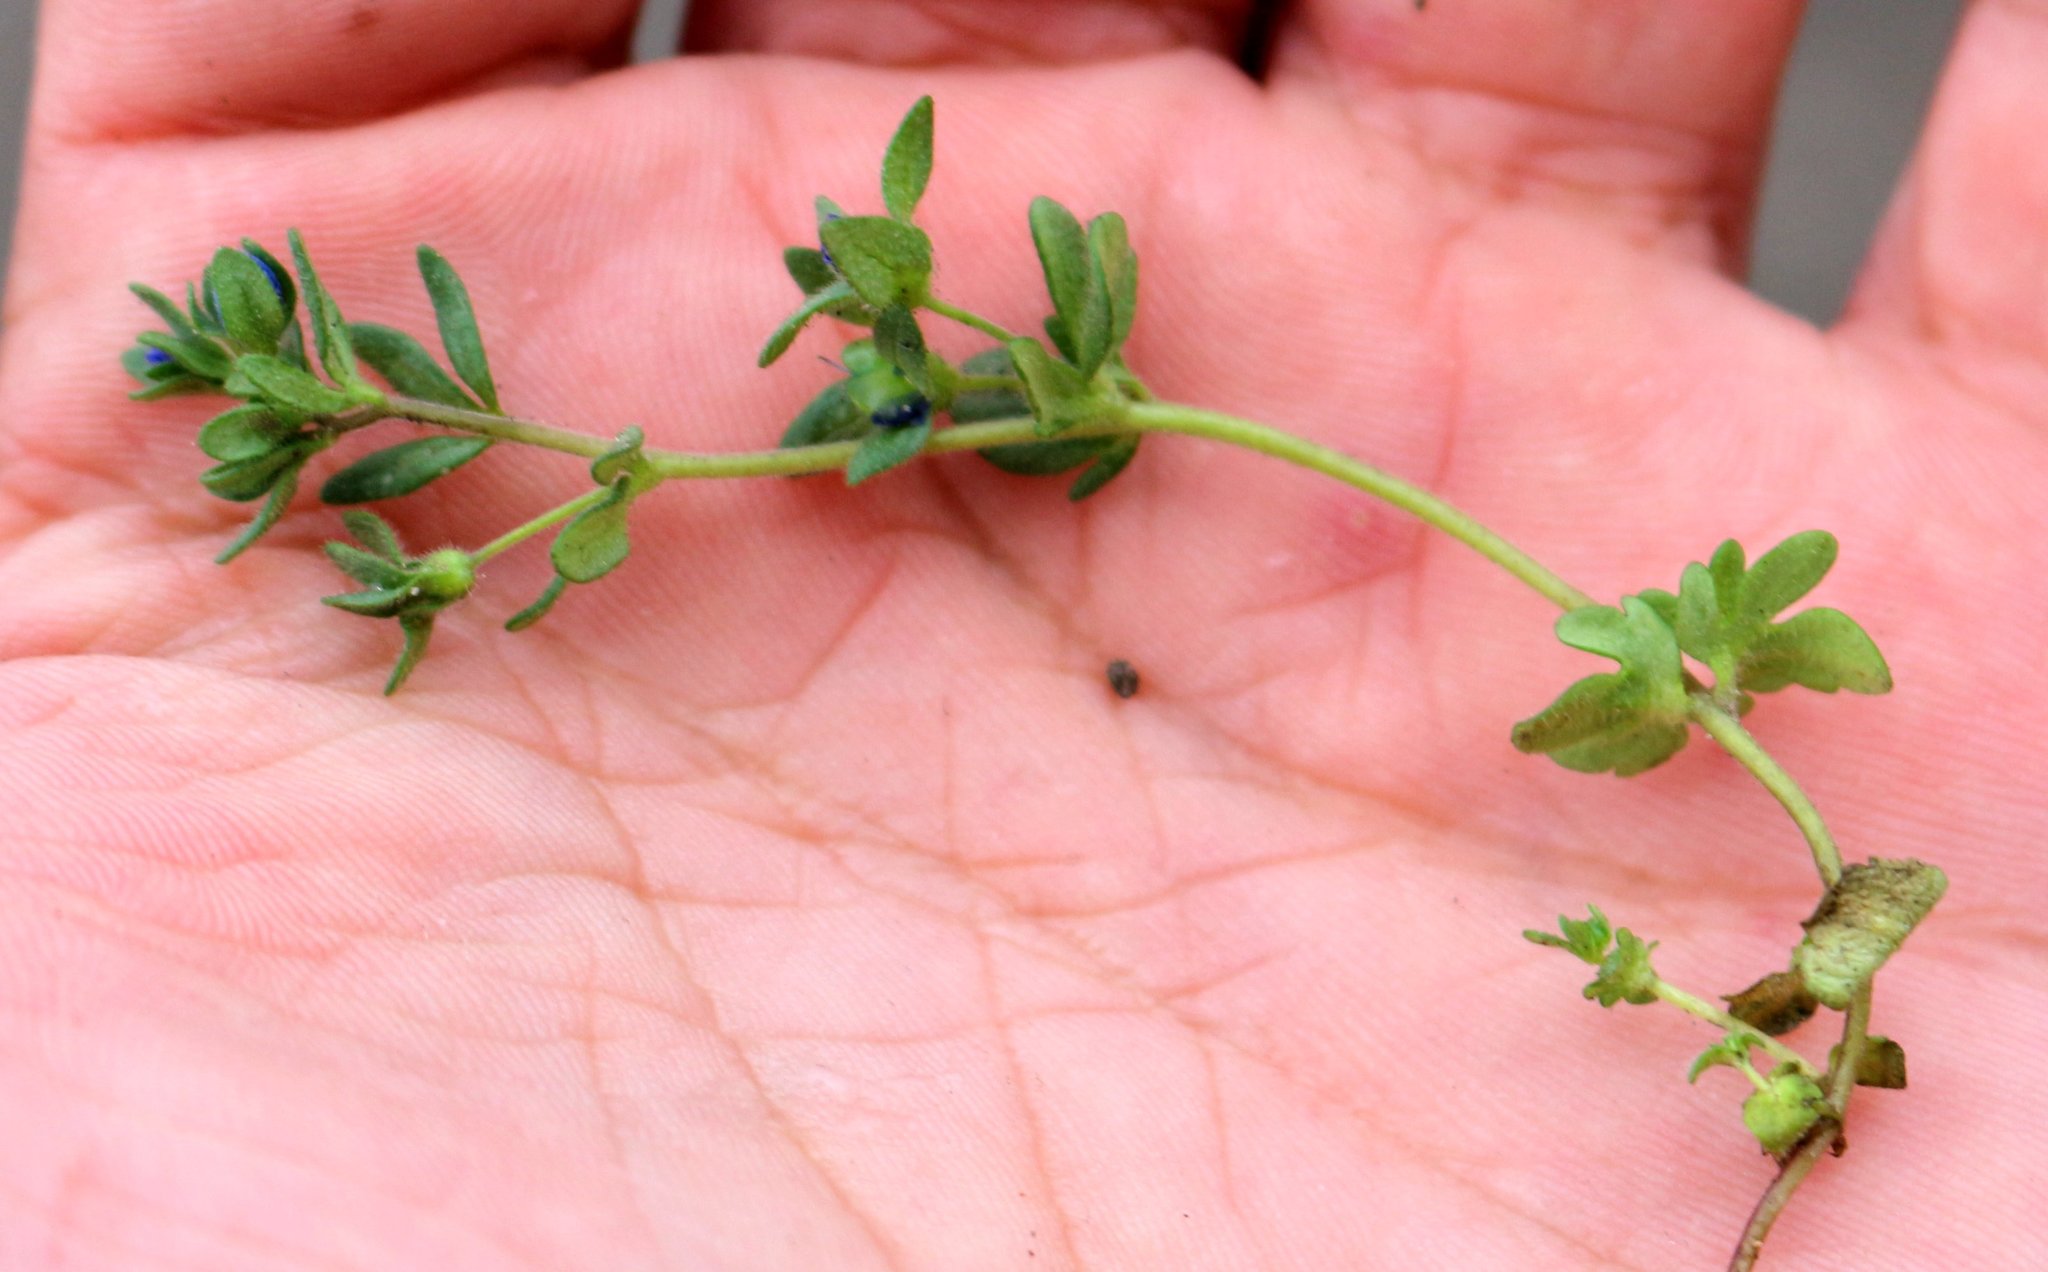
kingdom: Plantae
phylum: Tracheophyta
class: Magnoliopsida
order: Lamiales
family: Plantaginaceae
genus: Veronica
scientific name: Veronica triphyllos
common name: Fingered speedwell
